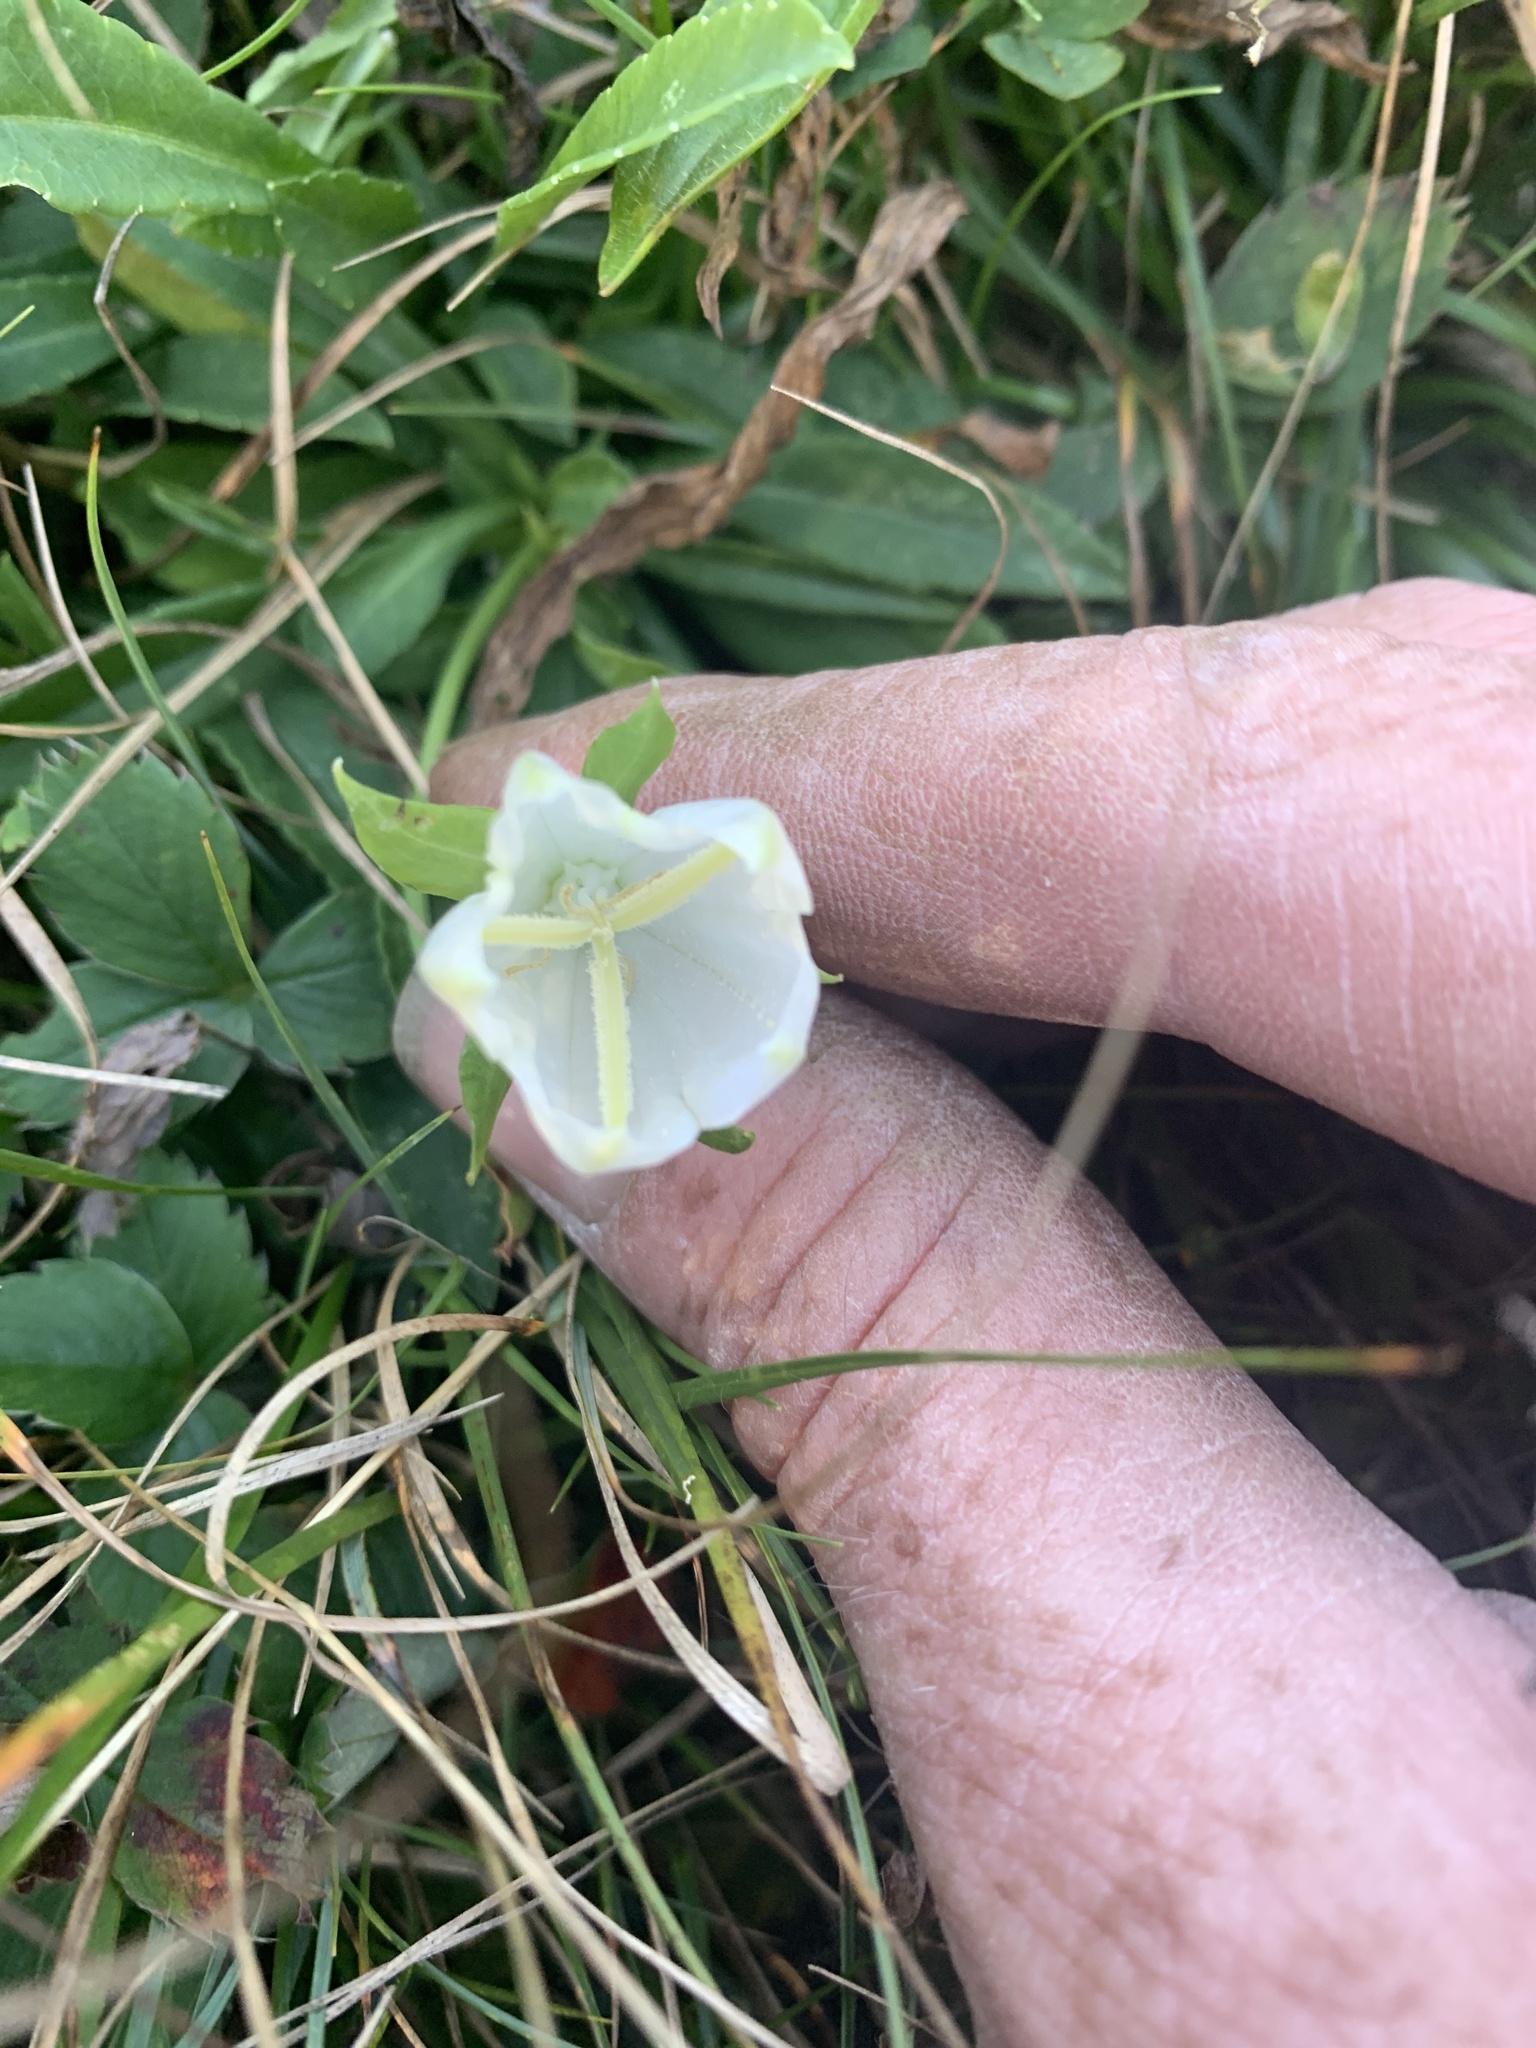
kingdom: Plantae
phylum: Tracheophyta
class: Magnoliopsida
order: Asterales
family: Campanulaceae
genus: Campanula
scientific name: Campanula
